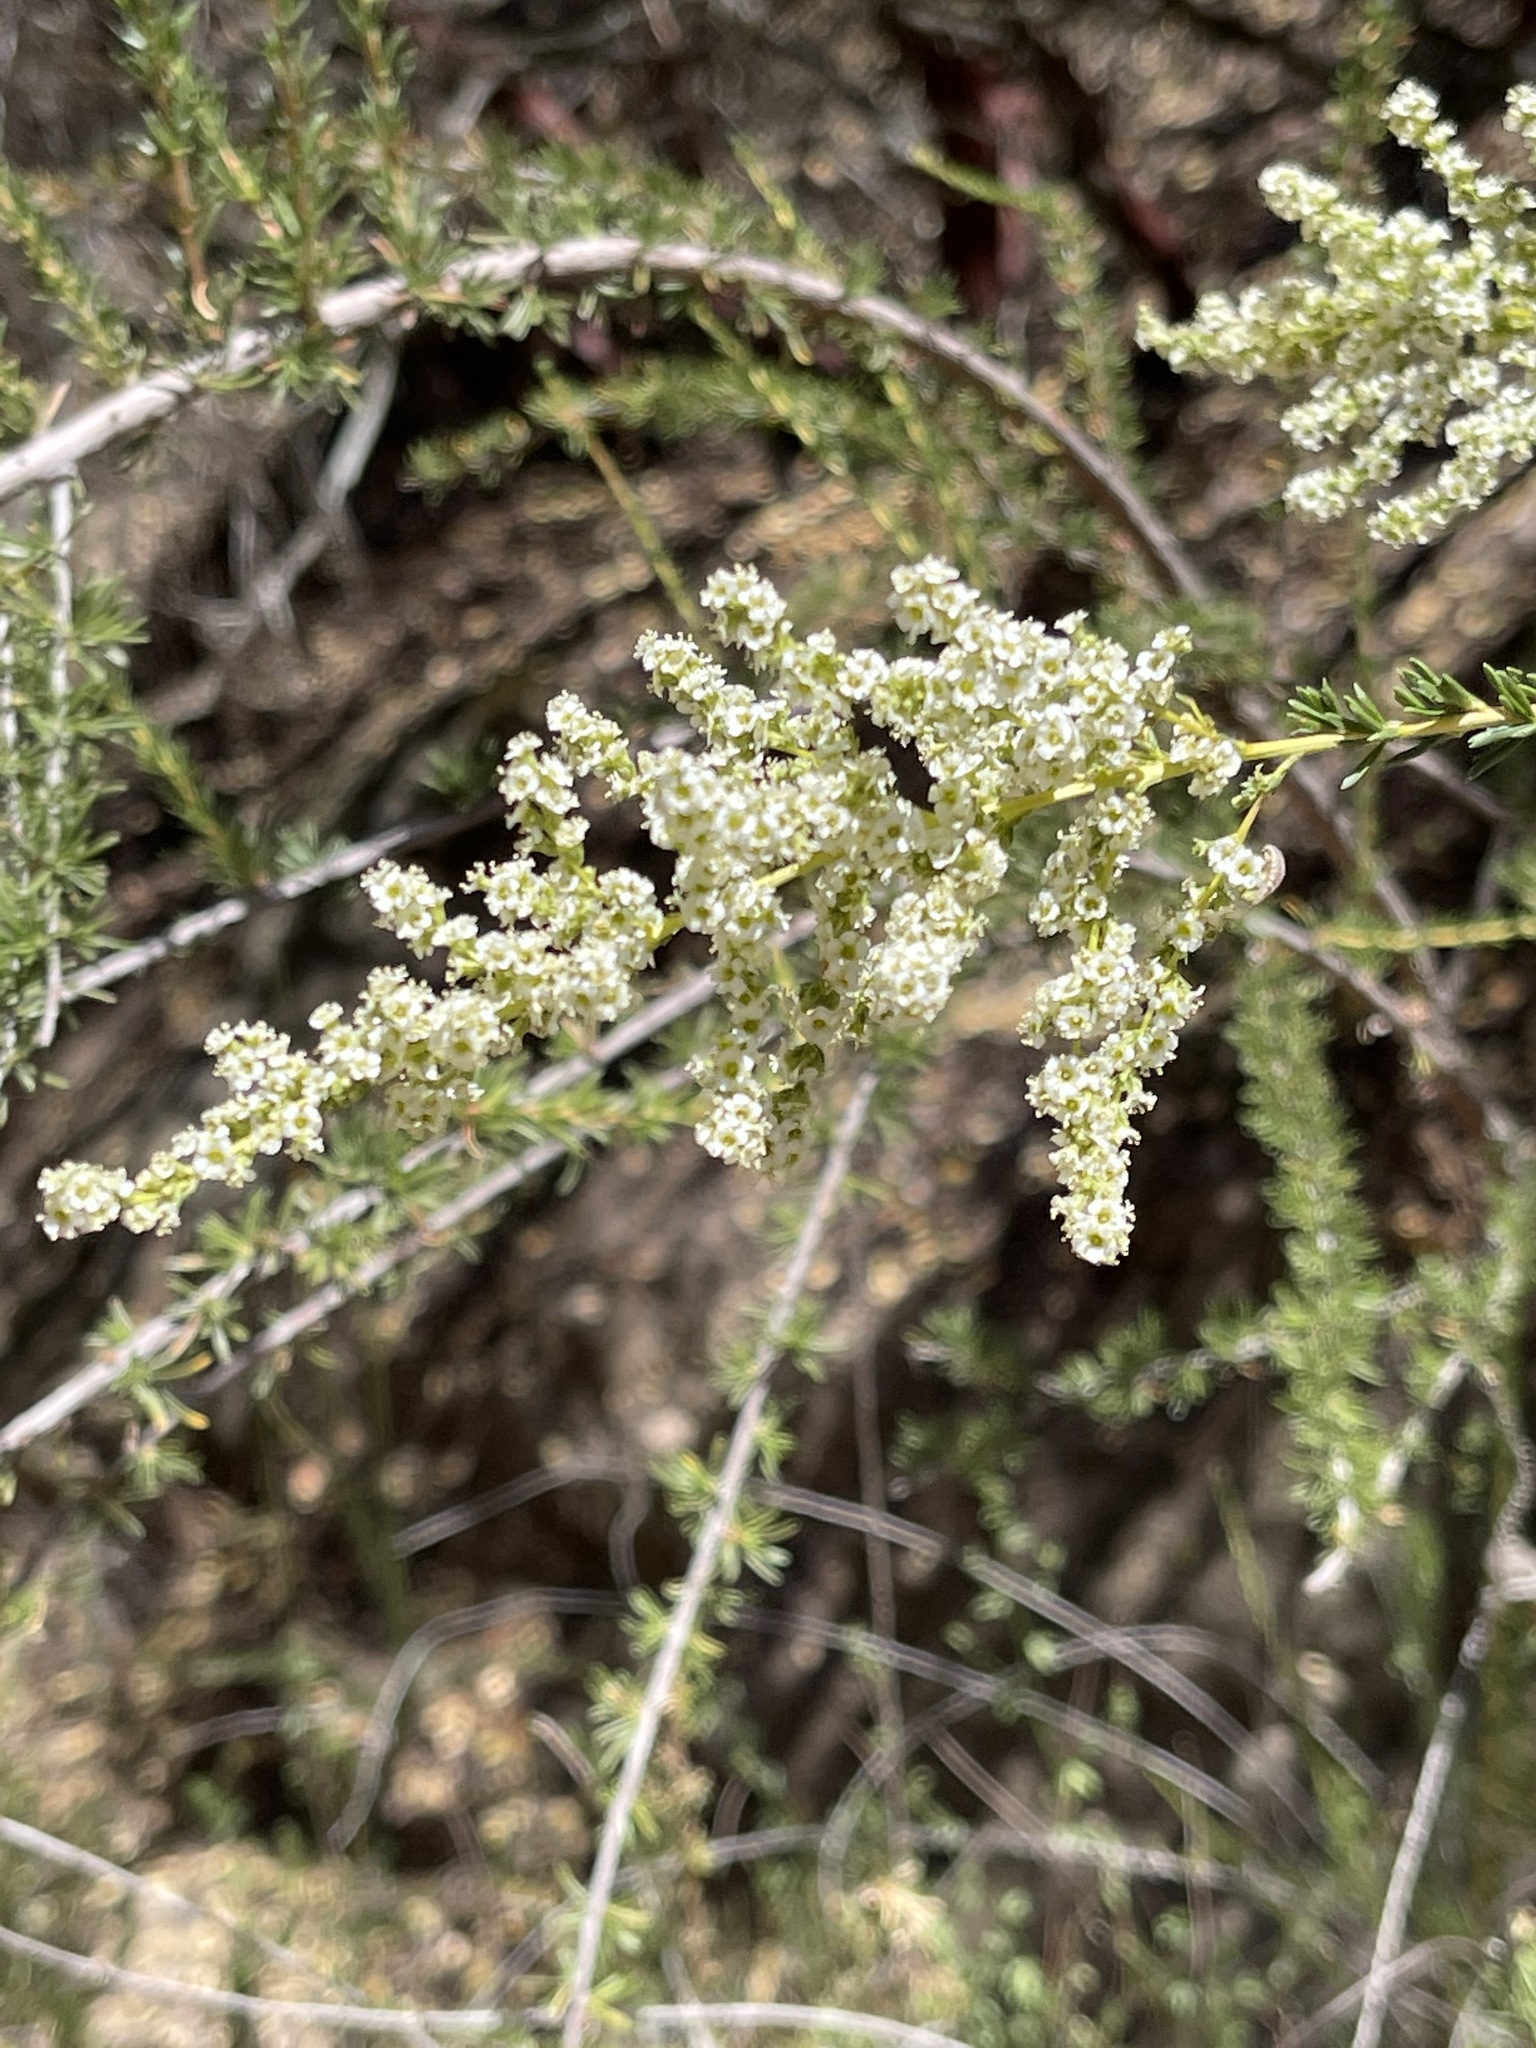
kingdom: Plantae
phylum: Tracheophyta
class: Magnoliopsida
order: Rosales
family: Rosaceae
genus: Adenostoma
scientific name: Adenostoma fasciculatum
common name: Chamise
